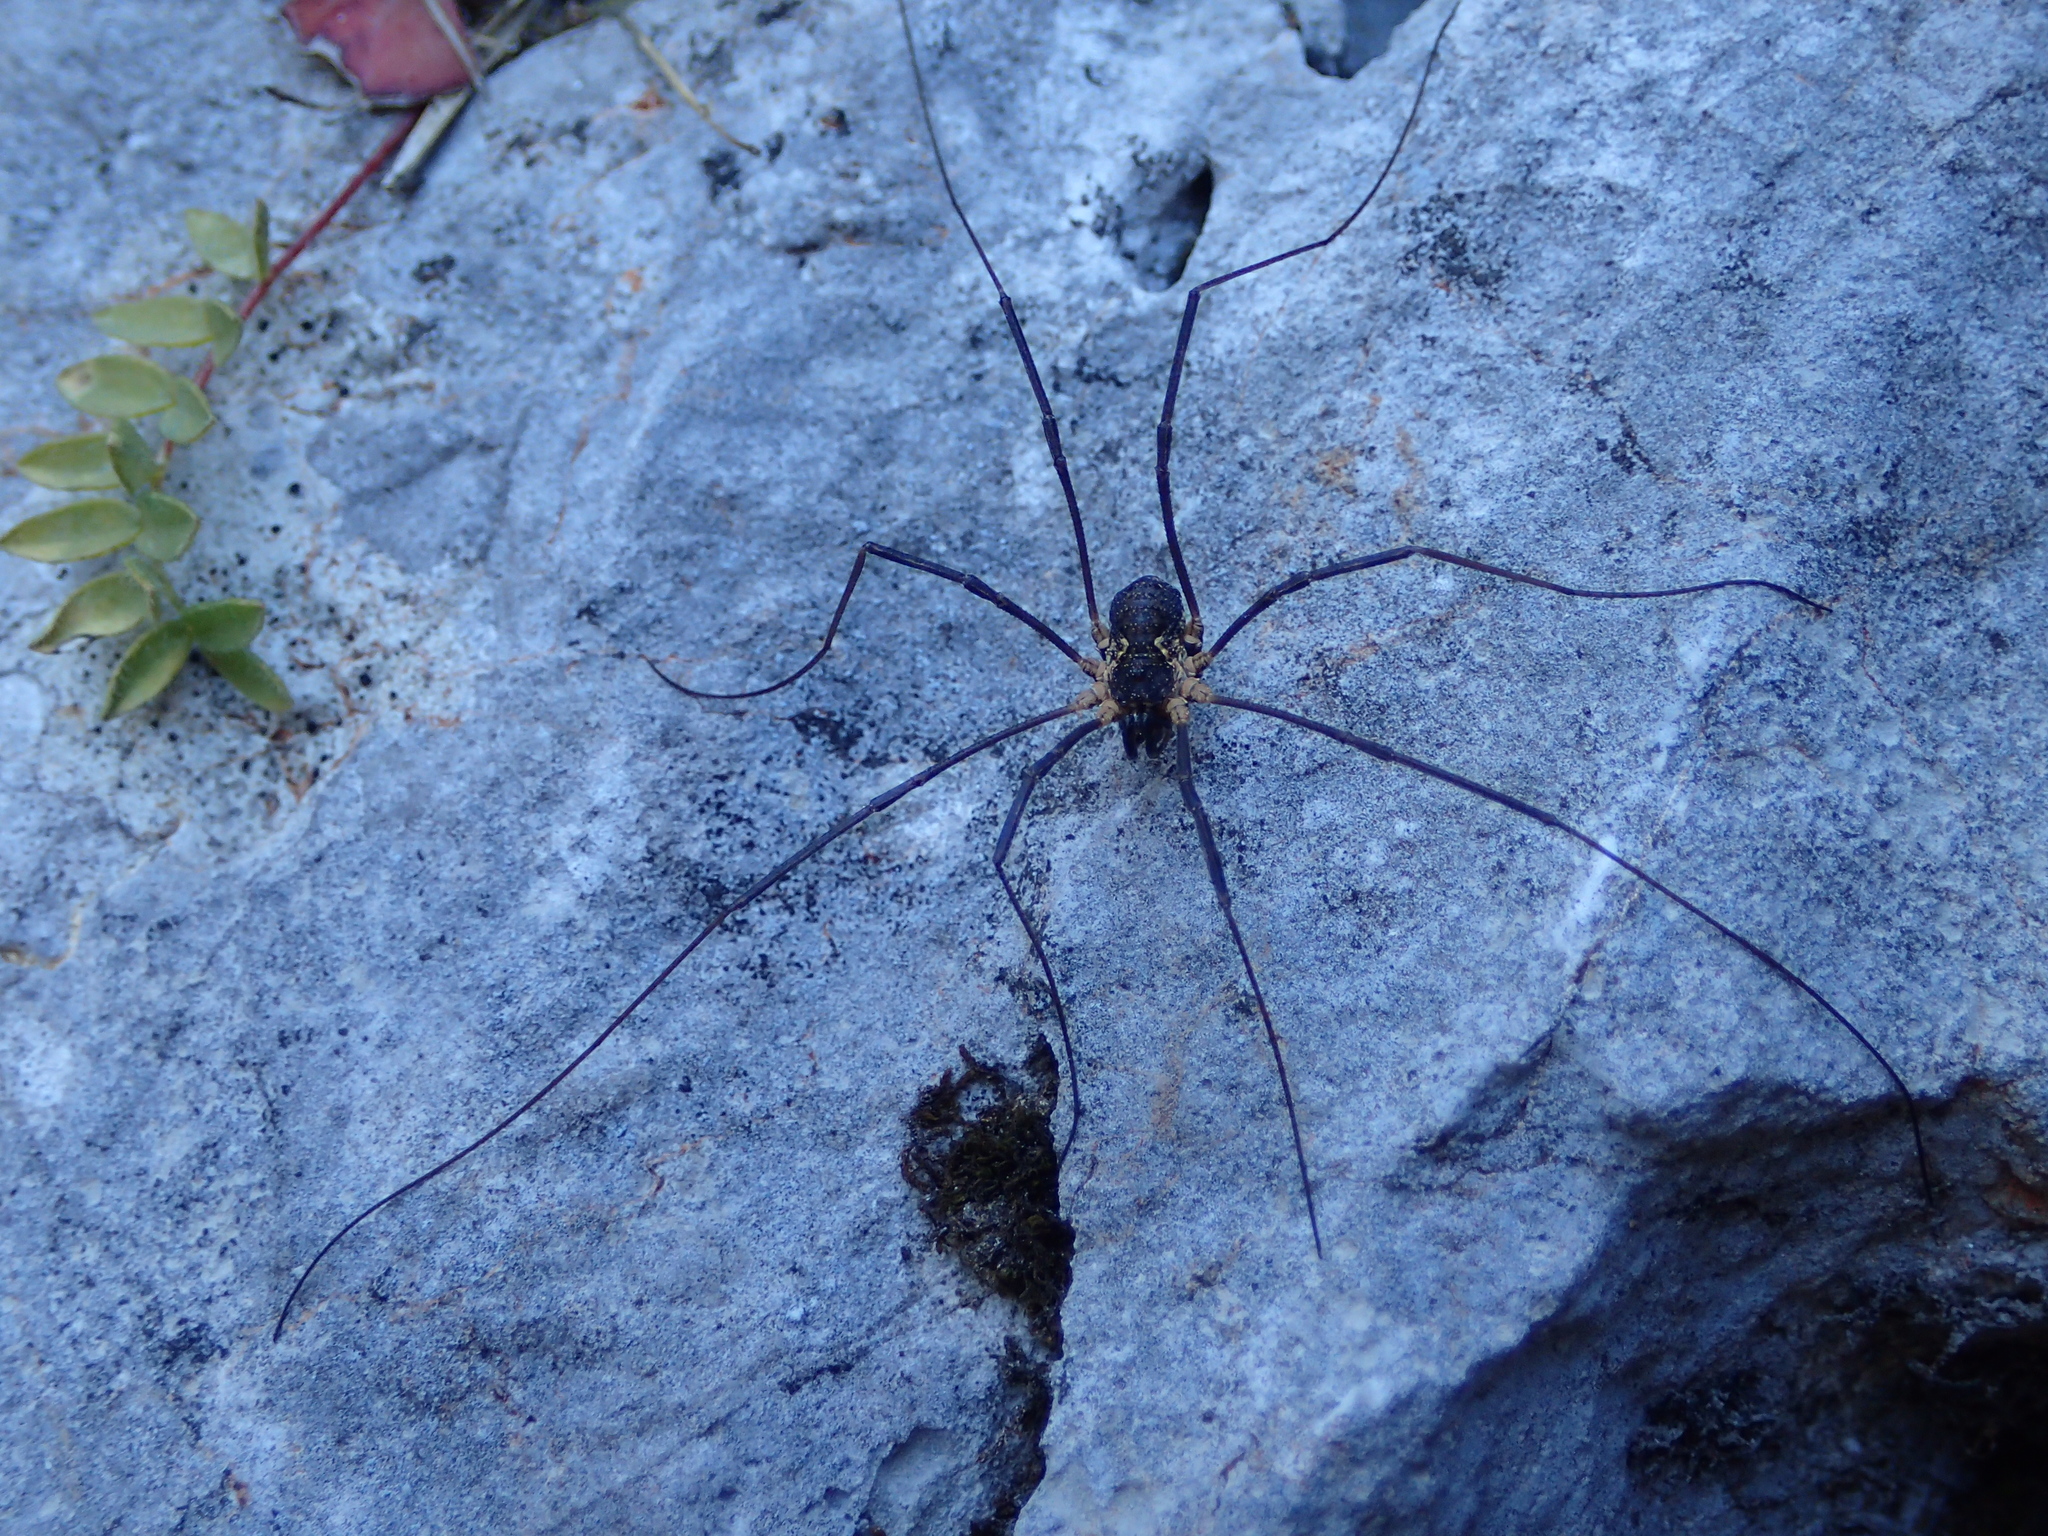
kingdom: Animalia
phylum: Arthropoda
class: Arachnida
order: Opiliones
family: Phalangiidae
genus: Mitopus
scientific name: Mitopus morio
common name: Saddleback harvestman
